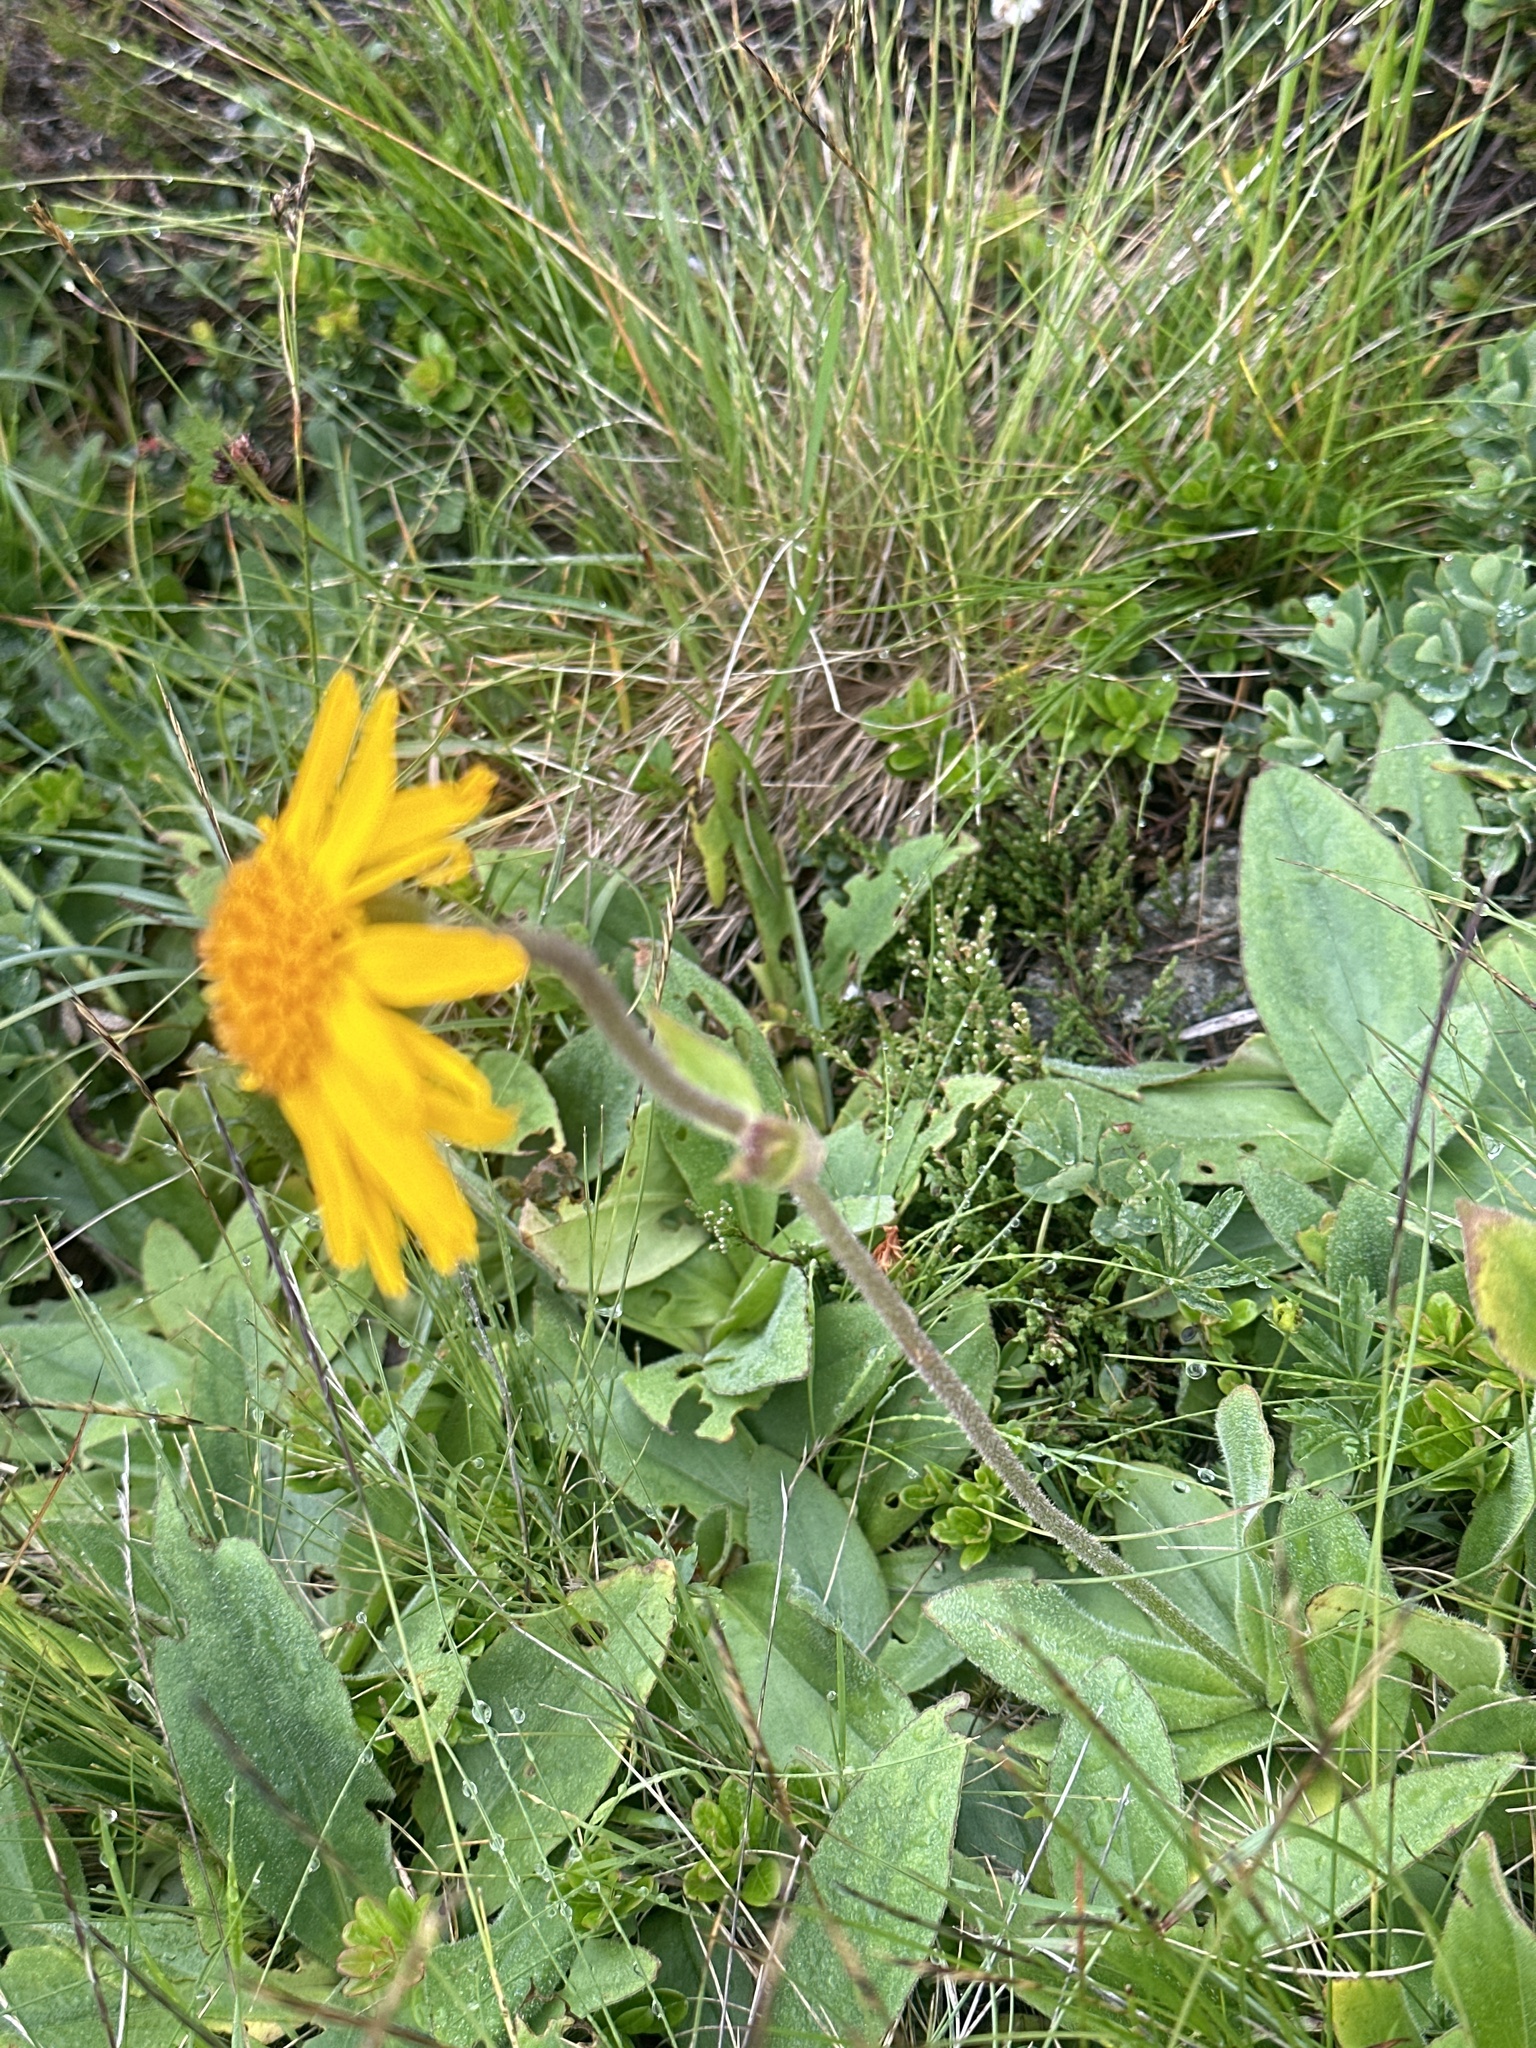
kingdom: Plantae
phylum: Tracheophyta
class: Magnoliopsida
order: Asterales
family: Asteraceae
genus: Arnica
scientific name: Arnica montana
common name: Leopard's bane
